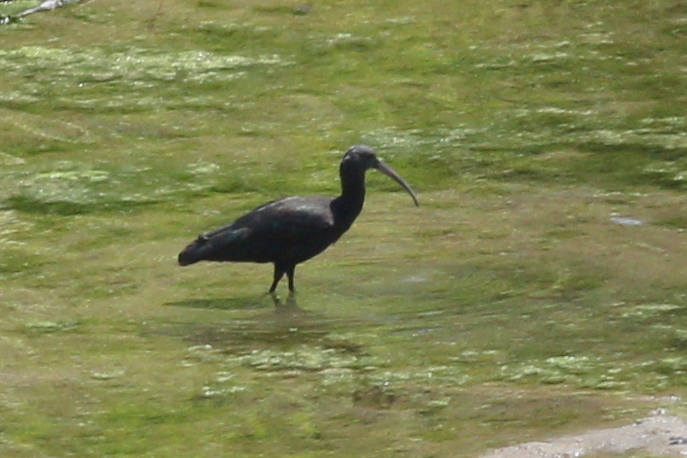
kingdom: Animalia
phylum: Chordata
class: Aves
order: Pelecaniformes
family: Threskiornithidae
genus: Plegadis
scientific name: Plegadis ridgwayi
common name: Puna ibis
